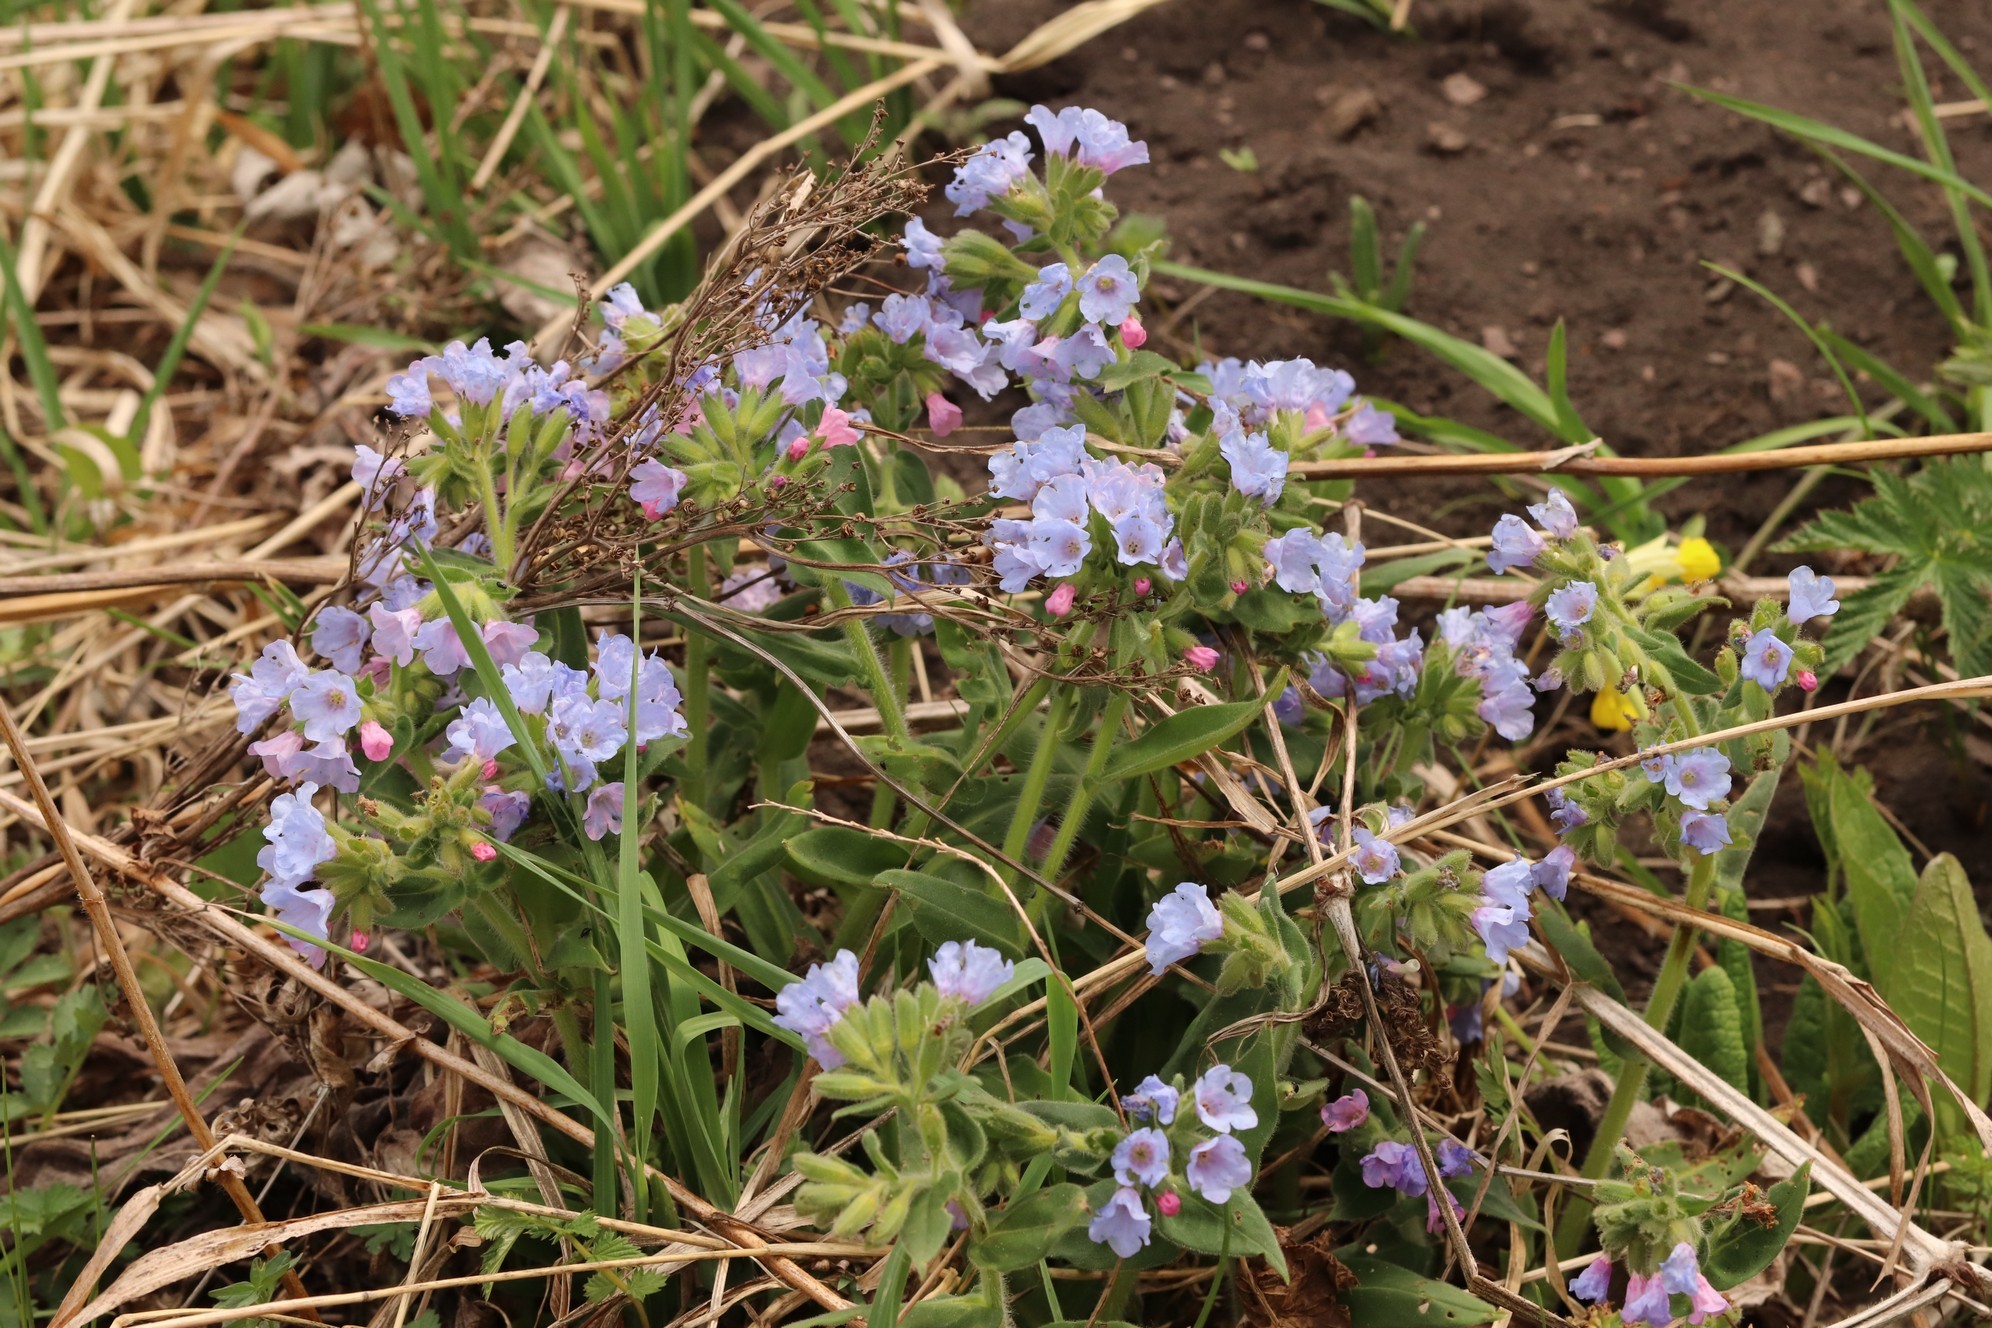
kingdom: Plantae
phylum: Tracheophyta
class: Magnoliopsida
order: Boraginales
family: Boraginaceae
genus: Pulmonaria
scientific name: Pulmonaria mollis
